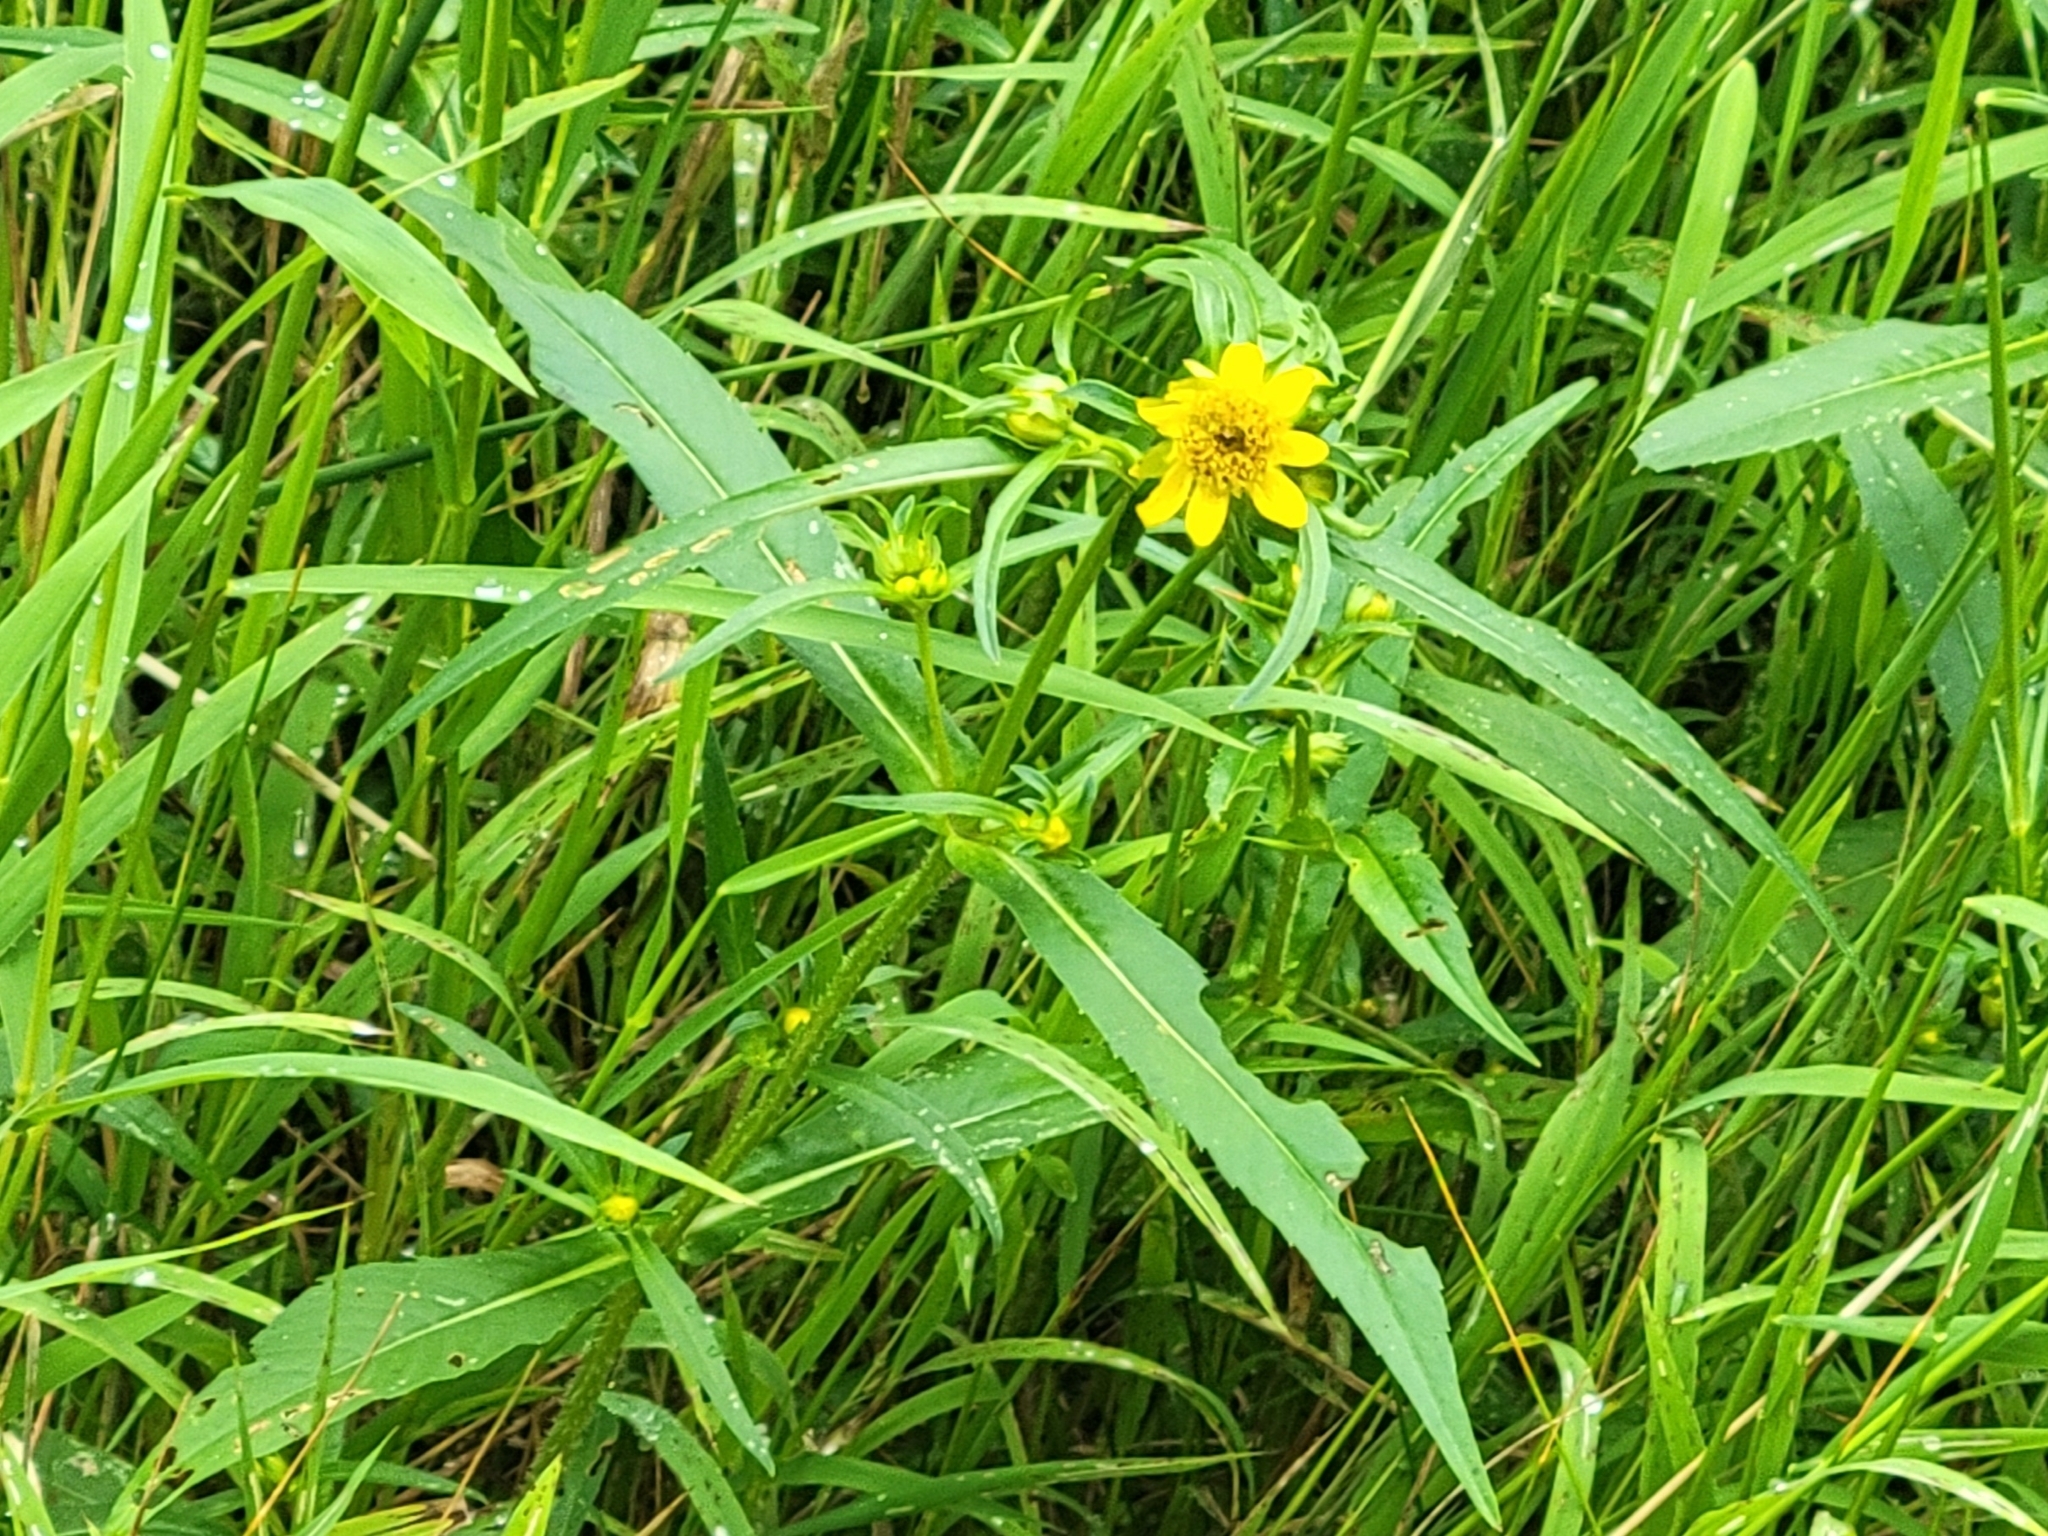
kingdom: Plantae
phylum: Tracheophyta
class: Magnoliopsida
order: Asterales
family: Asteraceae
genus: Bidens
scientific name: Bidens cernua
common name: Nodding bur-marigold
